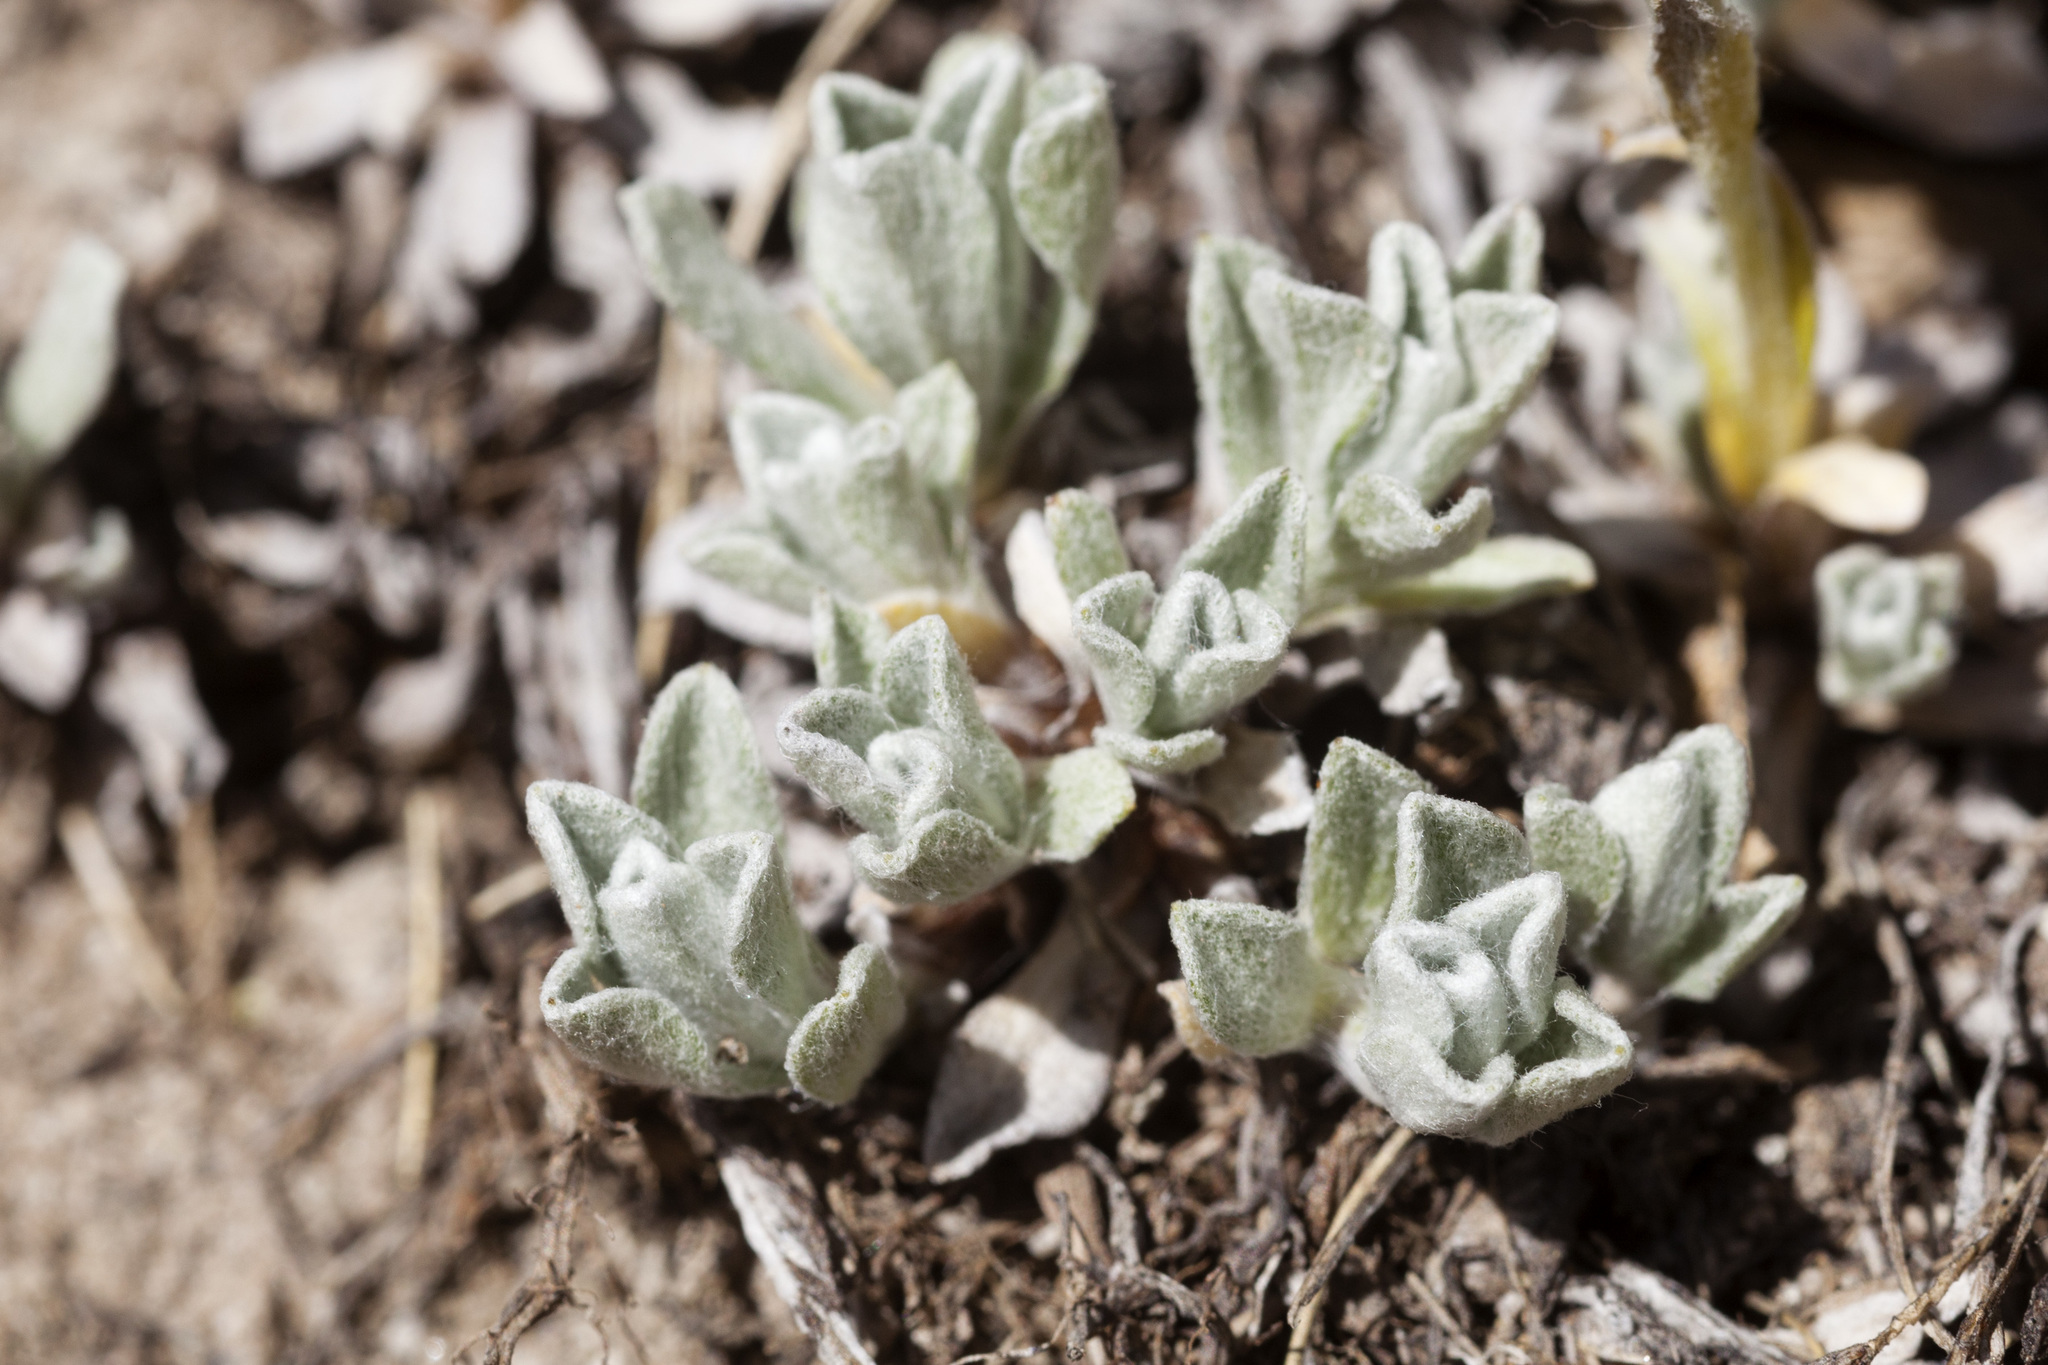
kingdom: Plantae
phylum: Tracheophyta
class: Magnoliopsida
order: Asterales
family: Asteraceae
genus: Antennaria
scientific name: Antennaria rosea
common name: Rosy pussytoes
